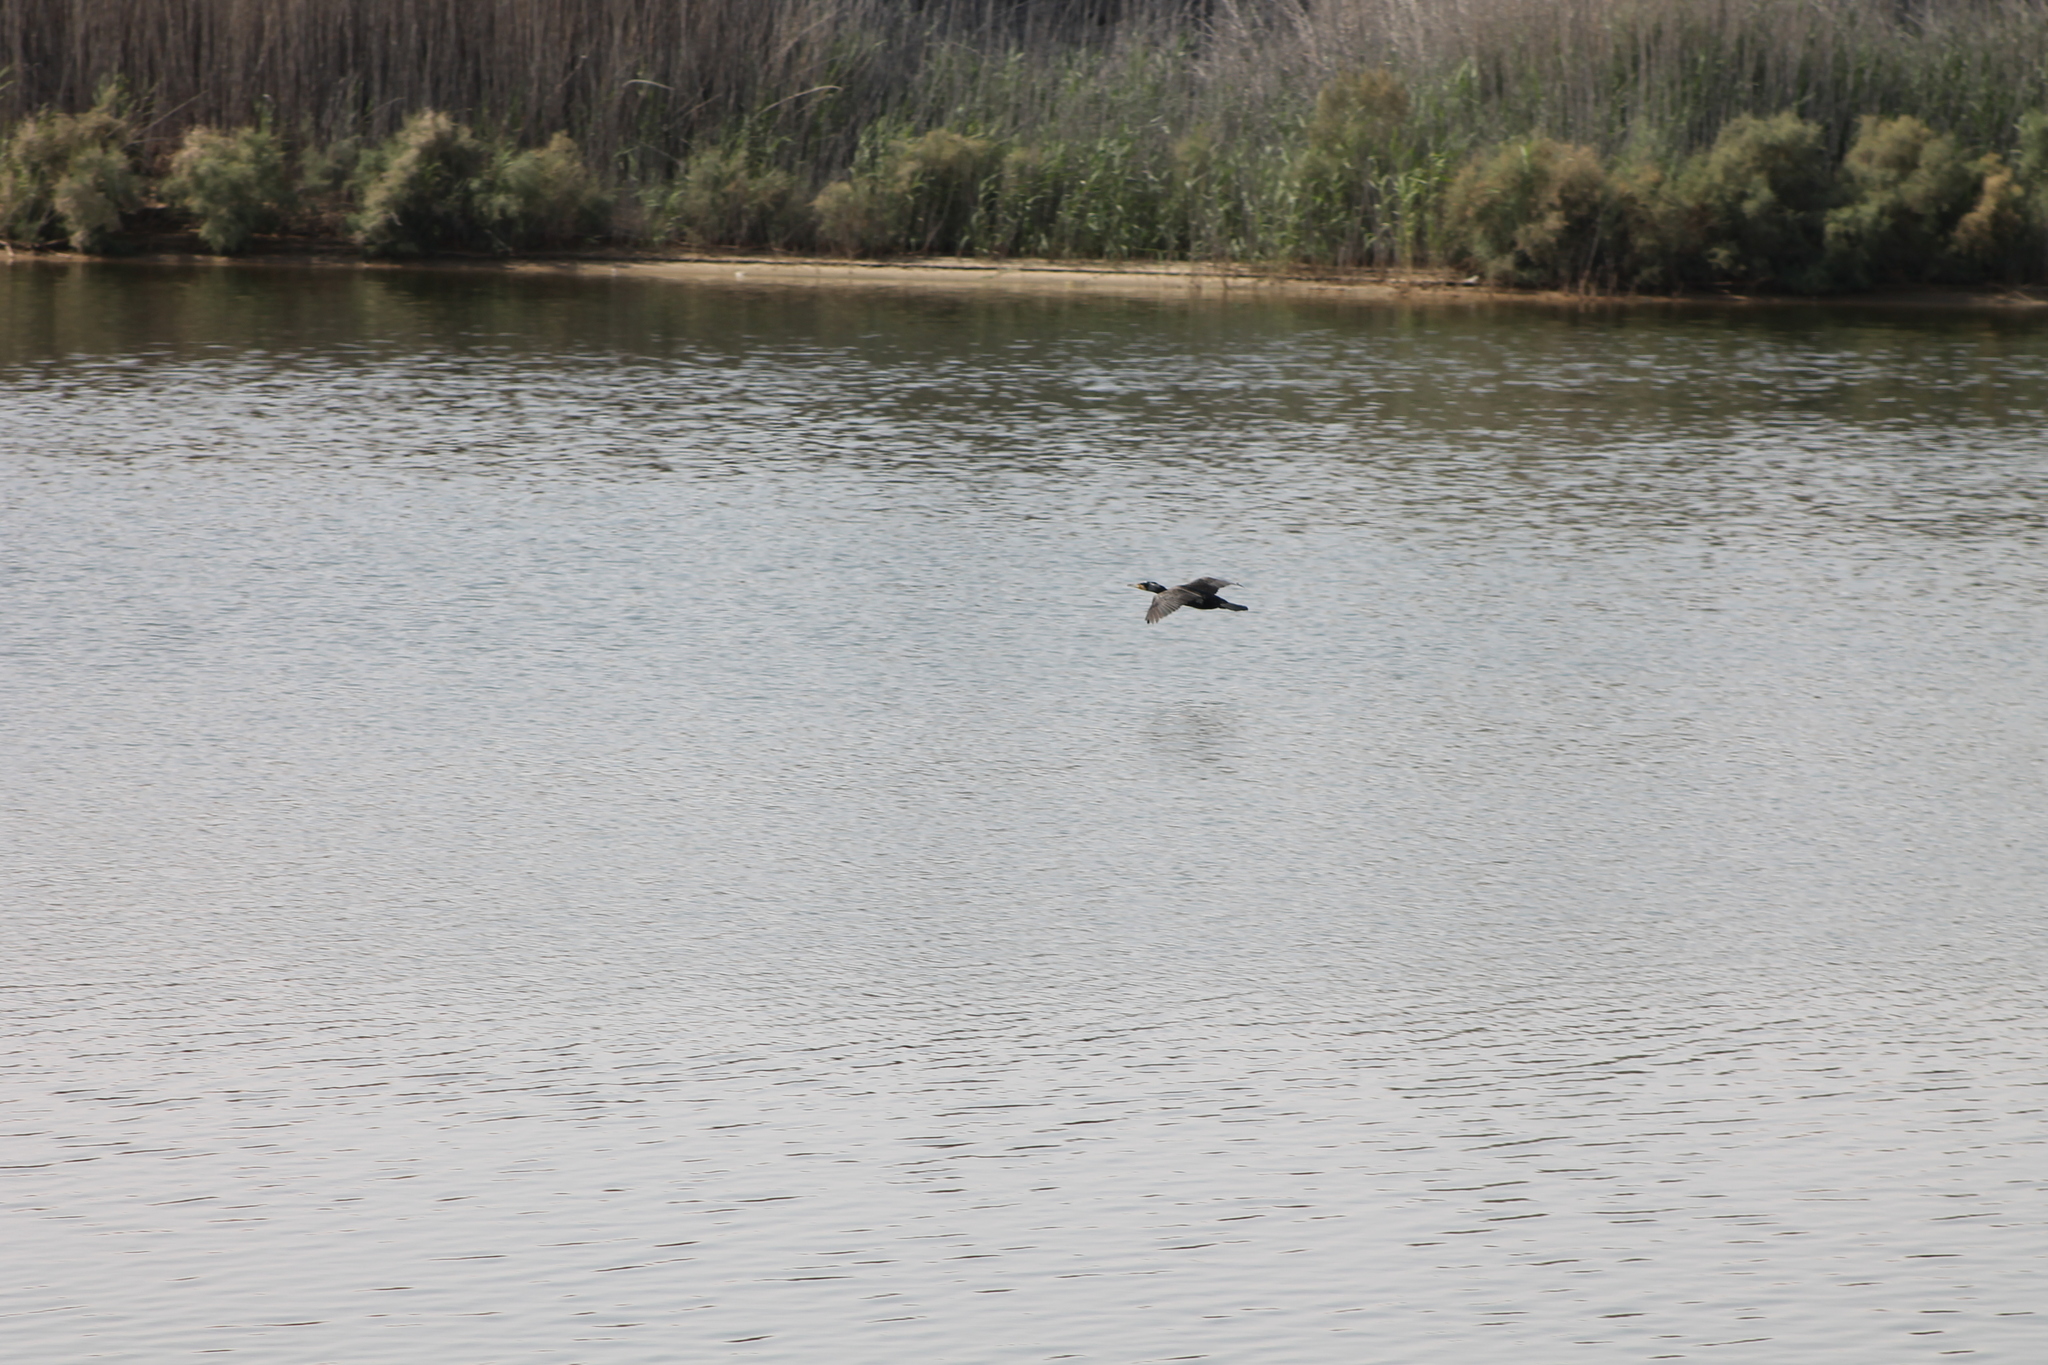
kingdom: Animalia
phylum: Chordata
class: Aves
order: Suliformes
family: Phalacrocoracidae
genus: Phalacrocorax
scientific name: Phalacrocorax carbo
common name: Great cormorant
